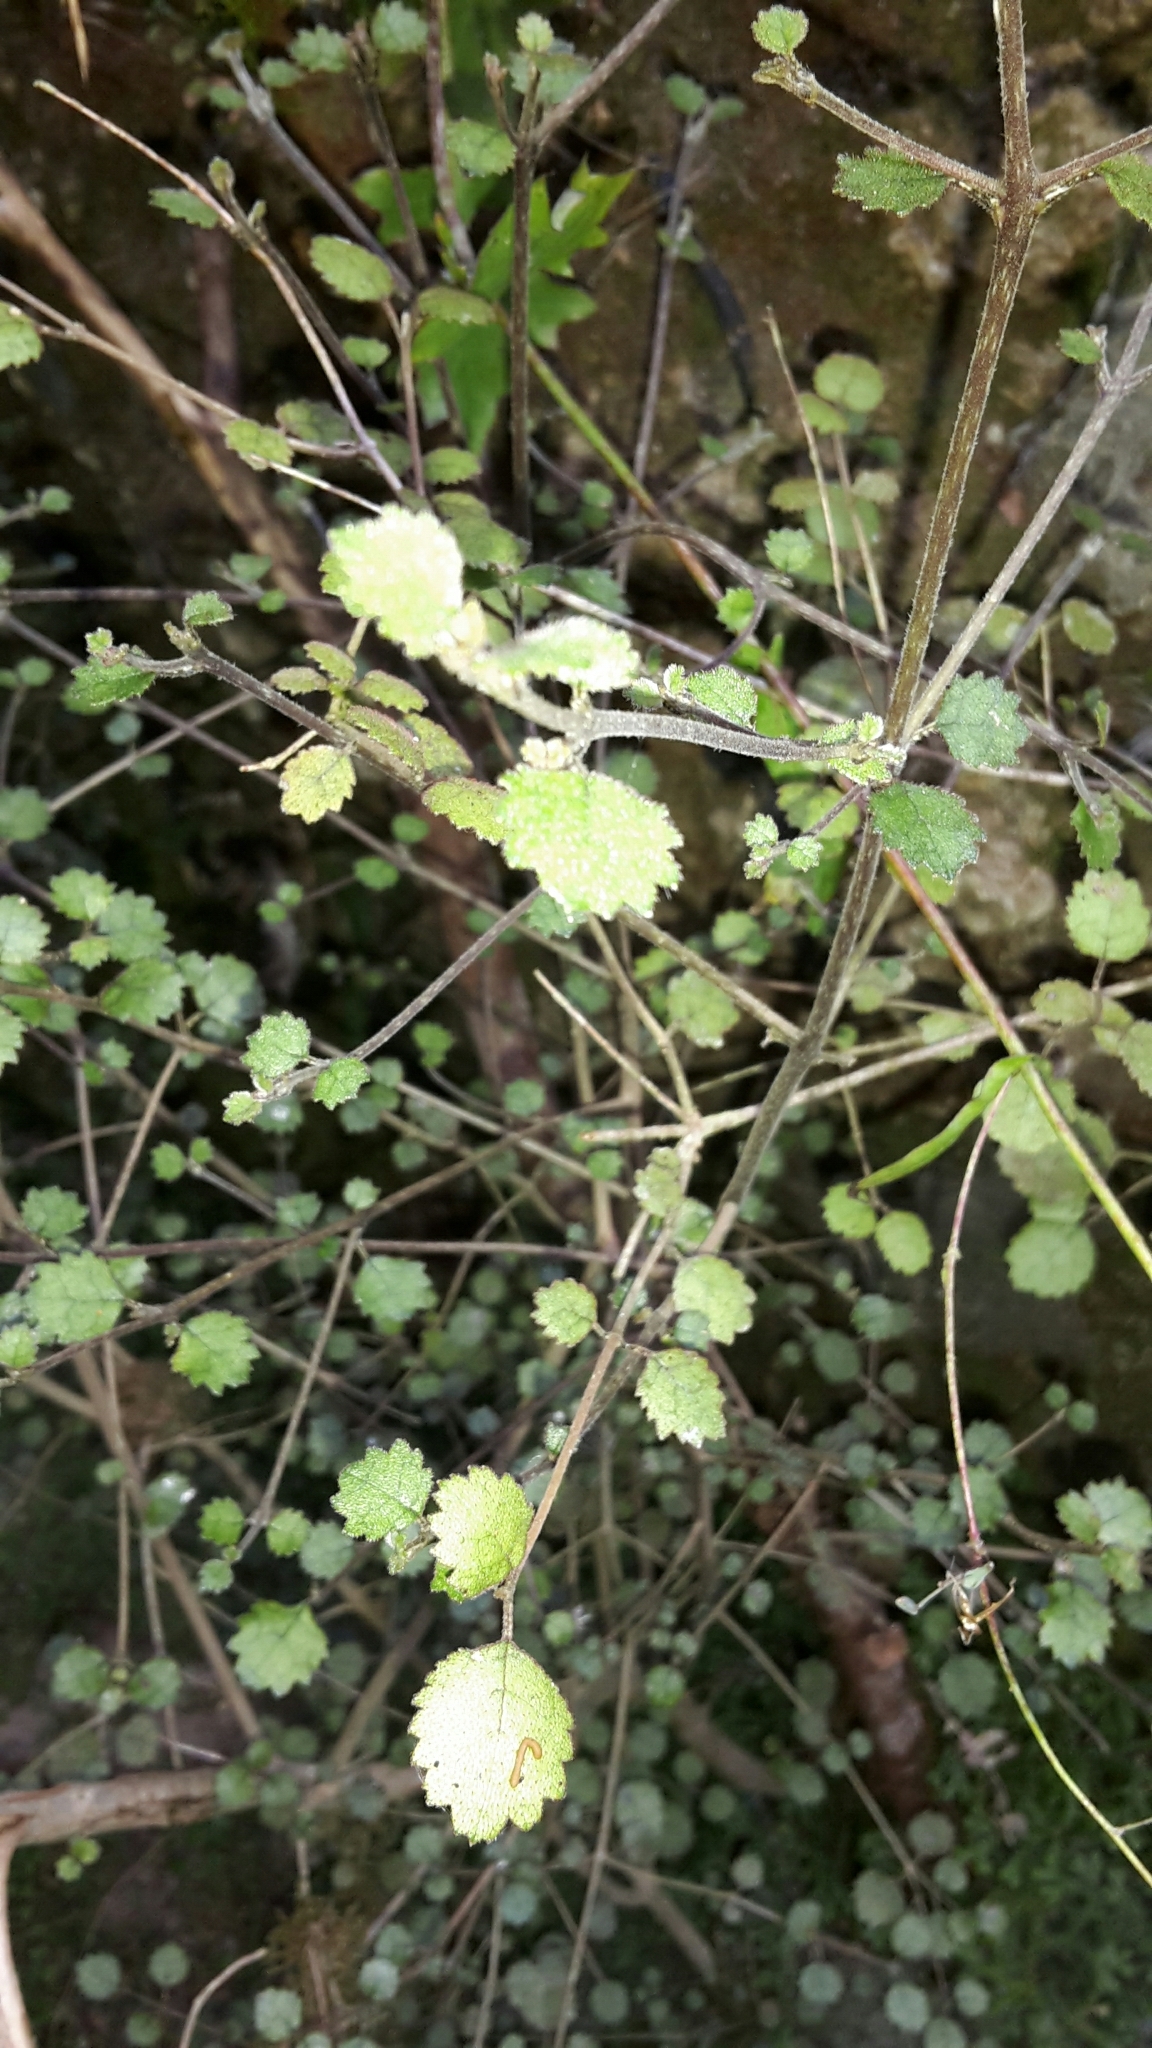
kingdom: Plantae
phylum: Tracheophyta
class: Magnoliopsida
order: Lamiales
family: Gesneriaceae
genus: Rhabdothamnus
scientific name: Rhabdothamnus solandri
